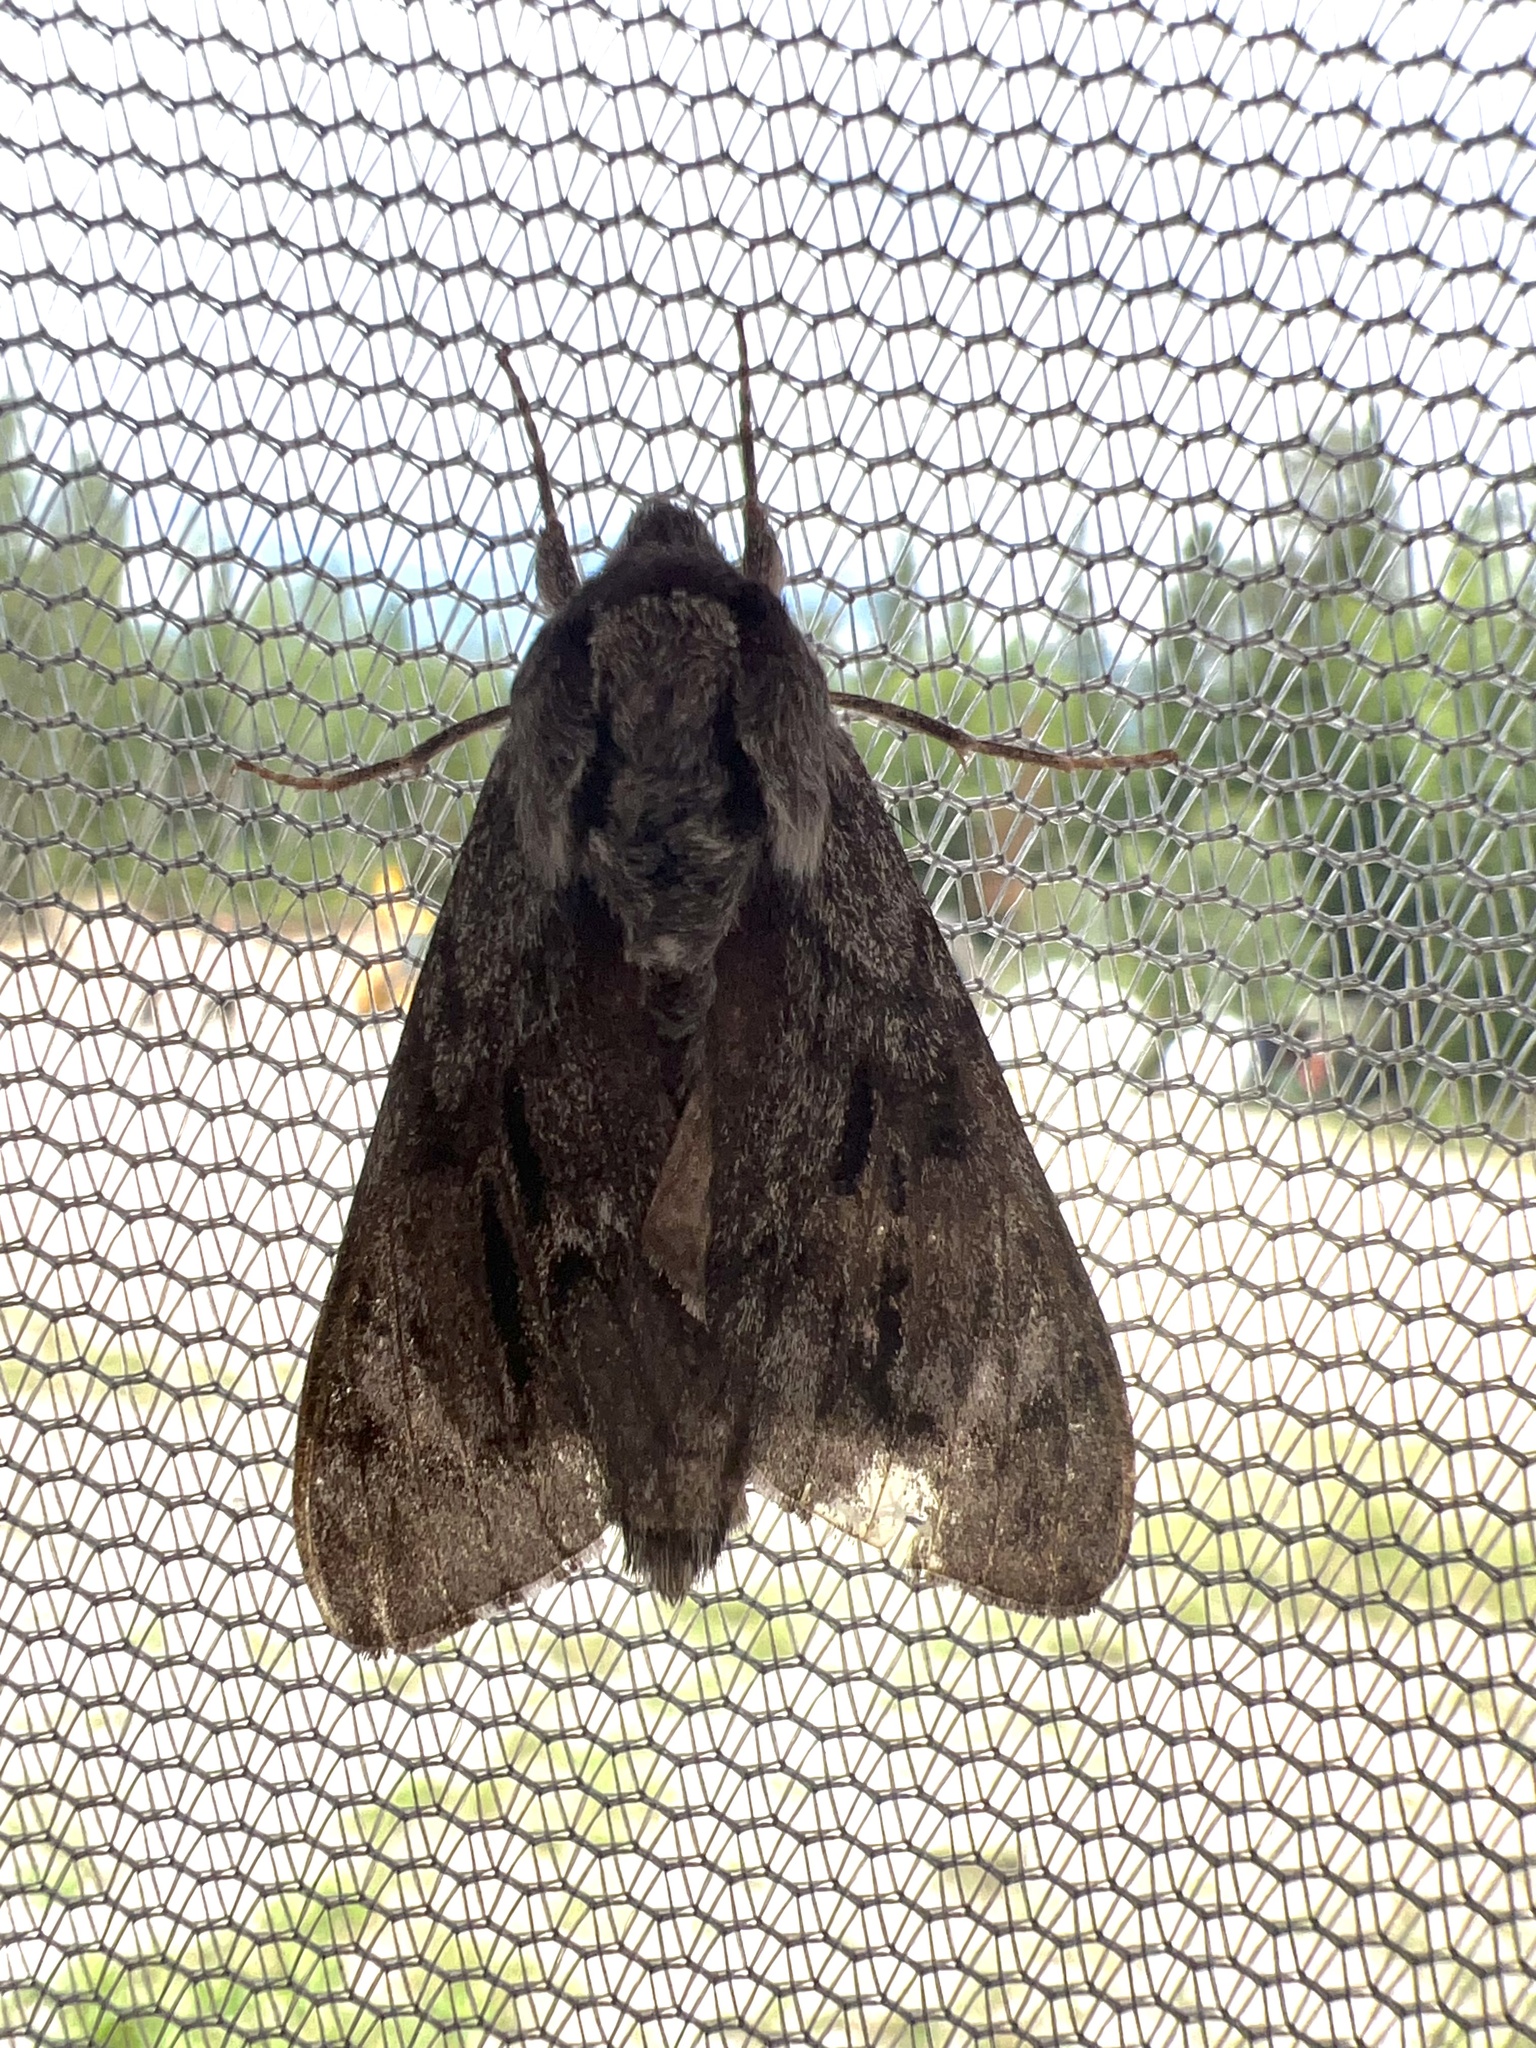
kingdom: Animalia
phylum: Arthropoda
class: Insecta
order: Lepidoptera
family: Sphingidae
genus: Lapara
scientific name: Lapara bombycoides
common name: Northern pine sphinx
